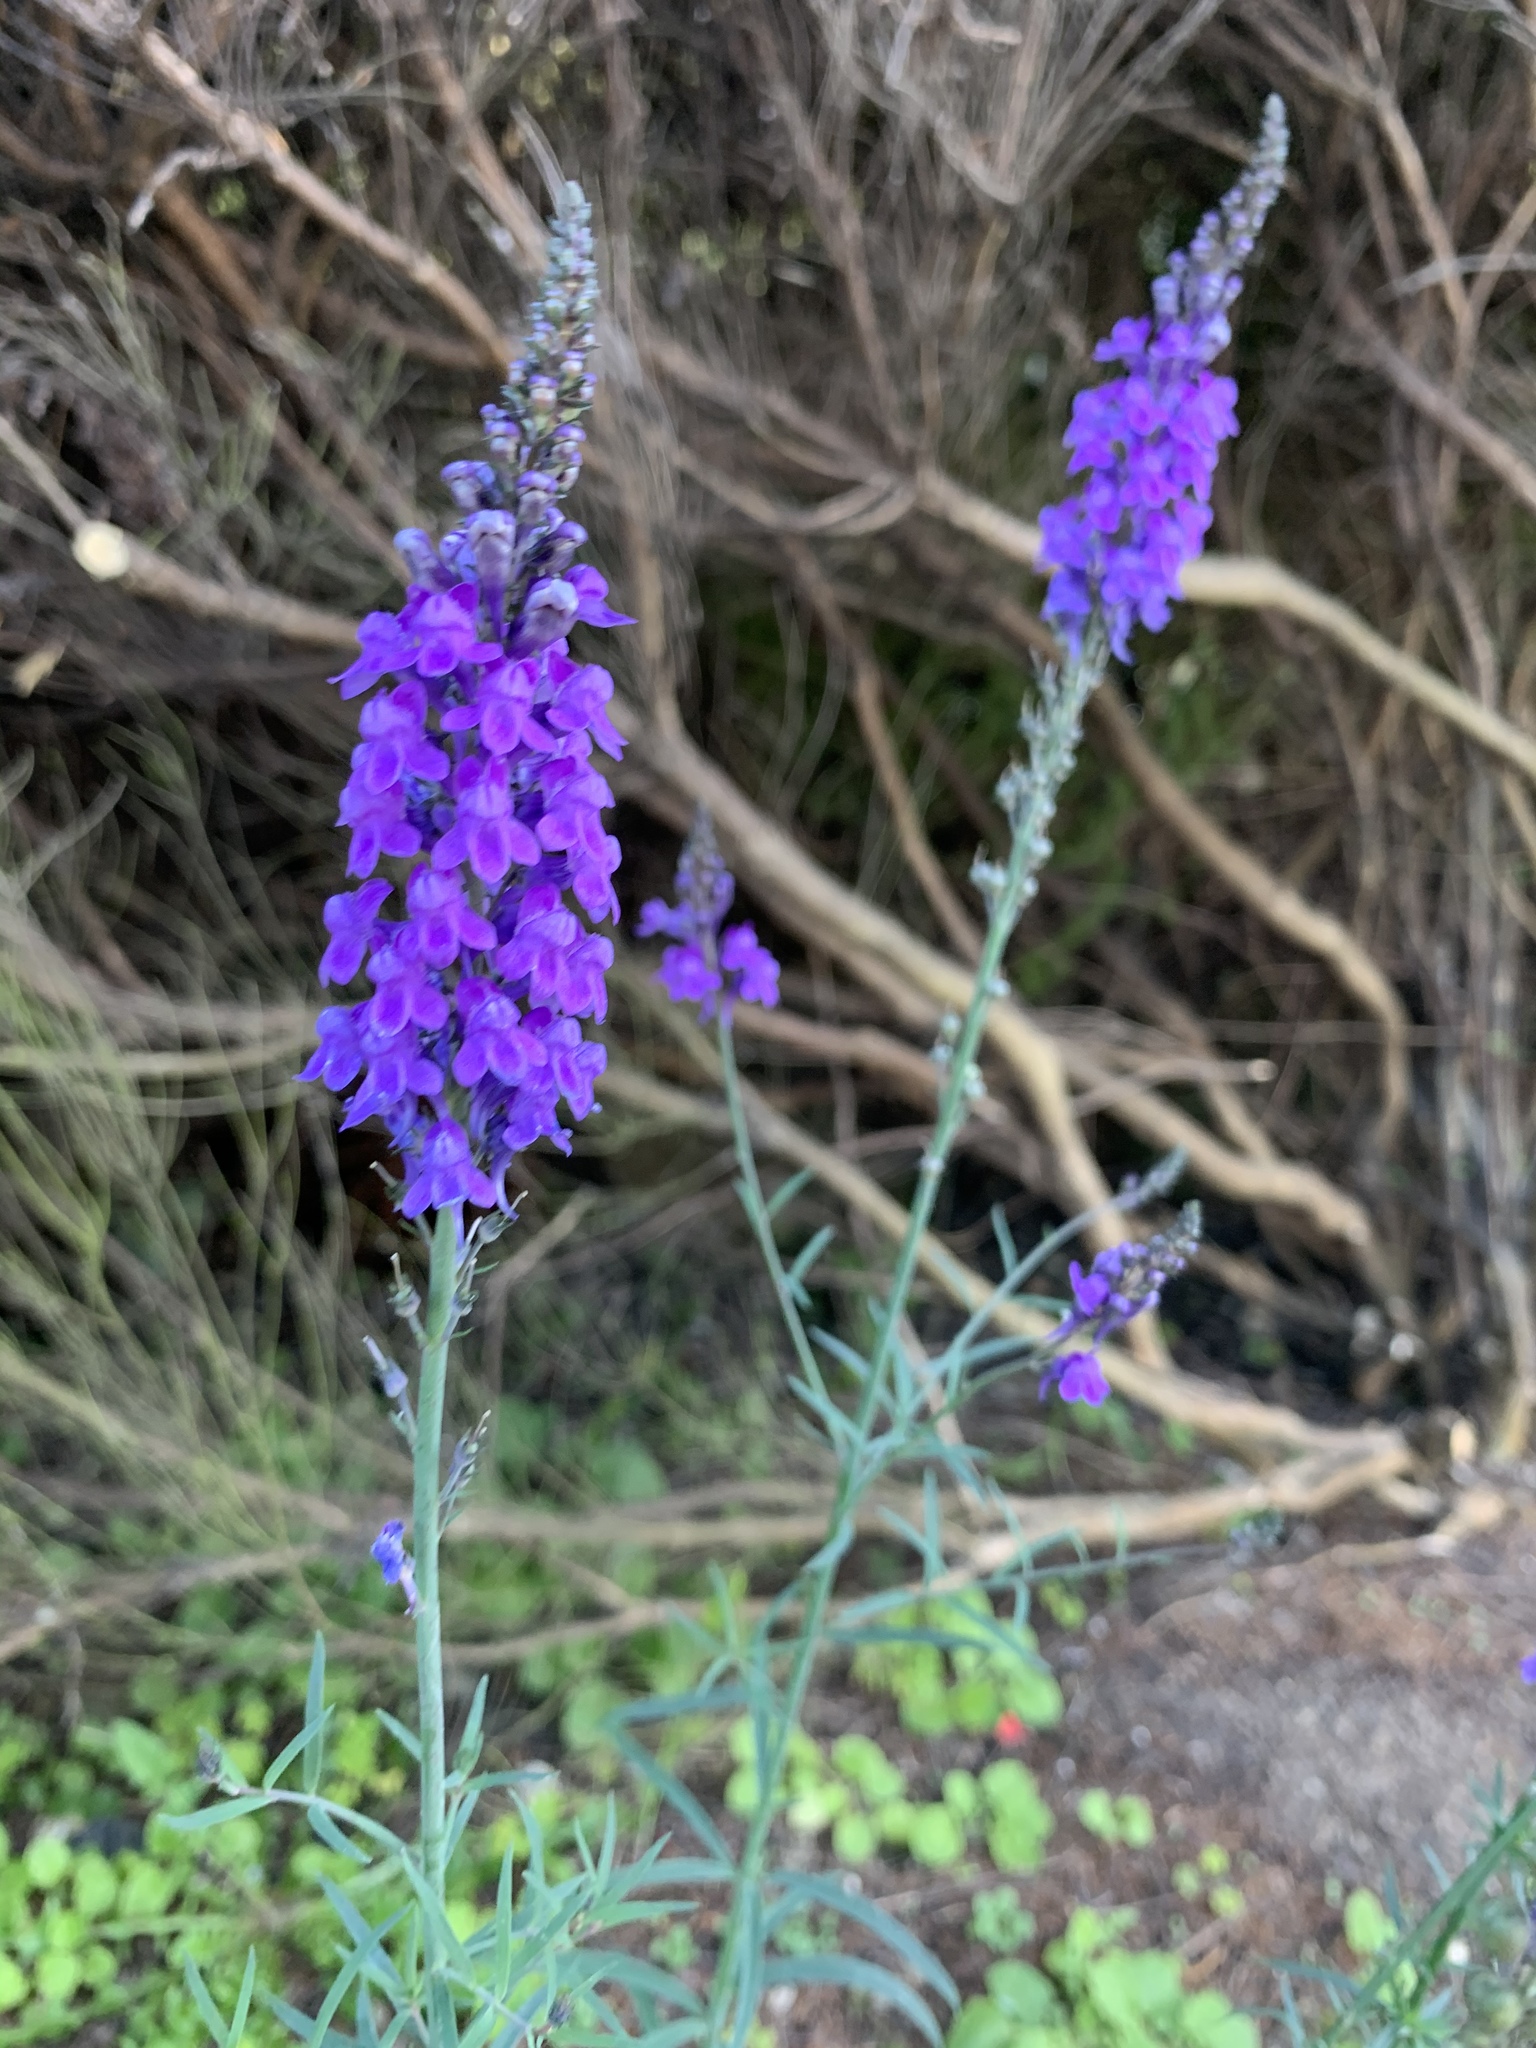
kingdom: Plantae
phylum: Tracheophyta
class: Magnoliopsida
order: Lamiales
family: Plantaginaceae
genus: Linaria
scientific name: Linaria purpurea
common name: Purple toadflax
